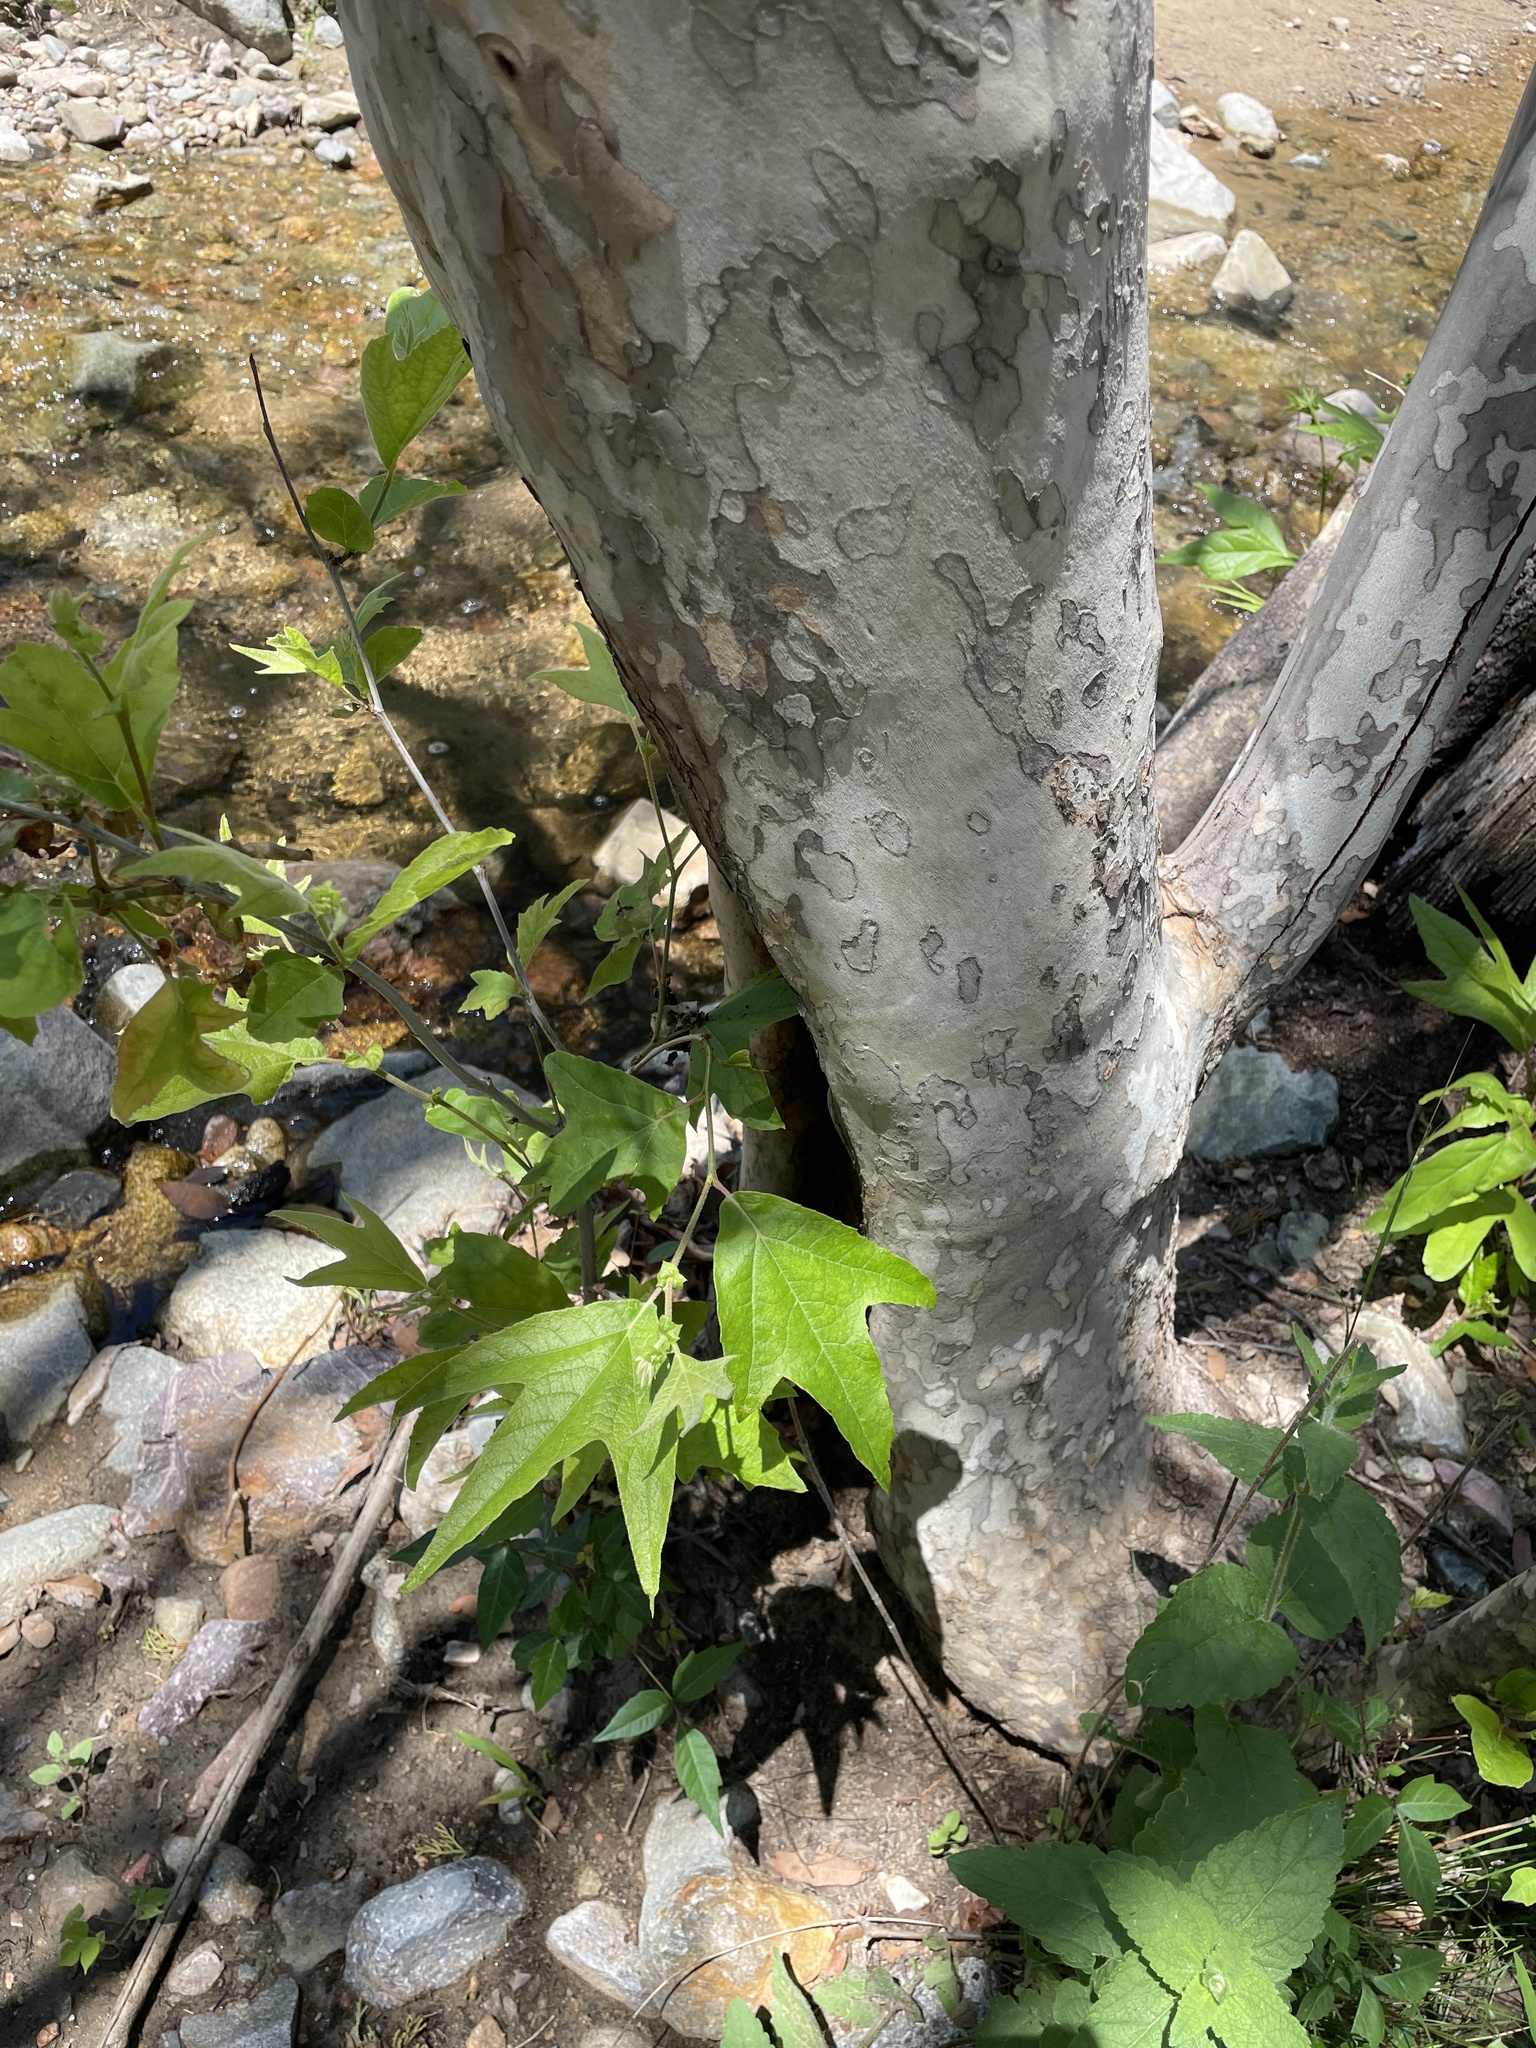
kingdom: Plantae
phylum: Tracheophyta
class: Magnoliopsida
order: Proteales
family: Platanaceae
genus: Platanus
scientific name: Platanus wrightii
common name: Arizona sycamore
